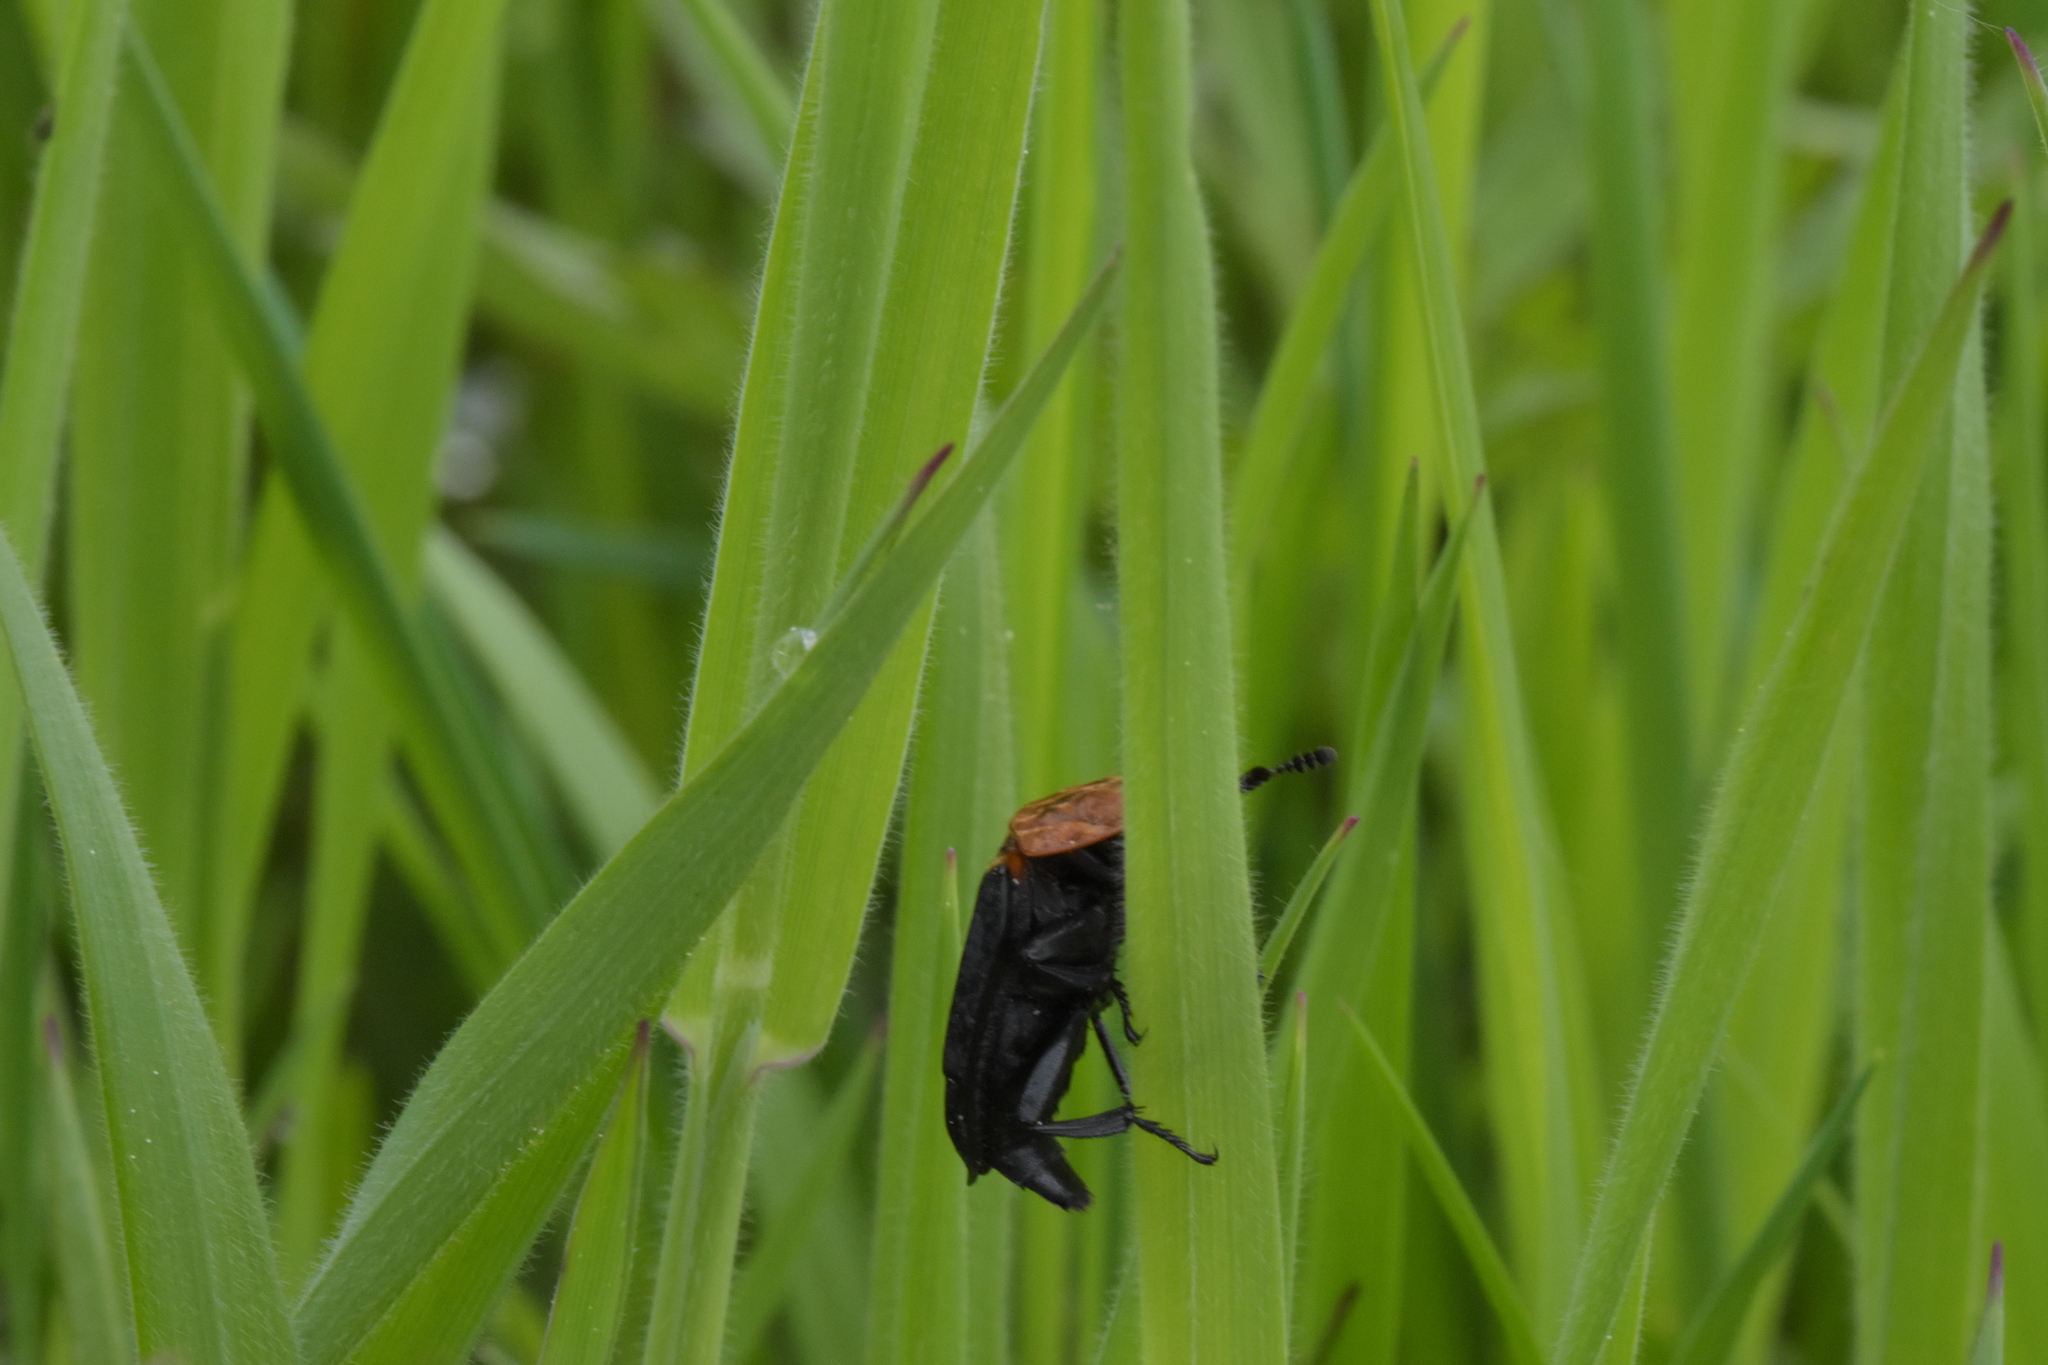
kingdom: Animalia
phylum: Arthropoda
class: Insecta
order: Coleoptera
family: Staphylinidae
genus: Oiceoptoma
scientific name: Oiceoptoma thoracicum
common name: Red-breasted carrion beetle
